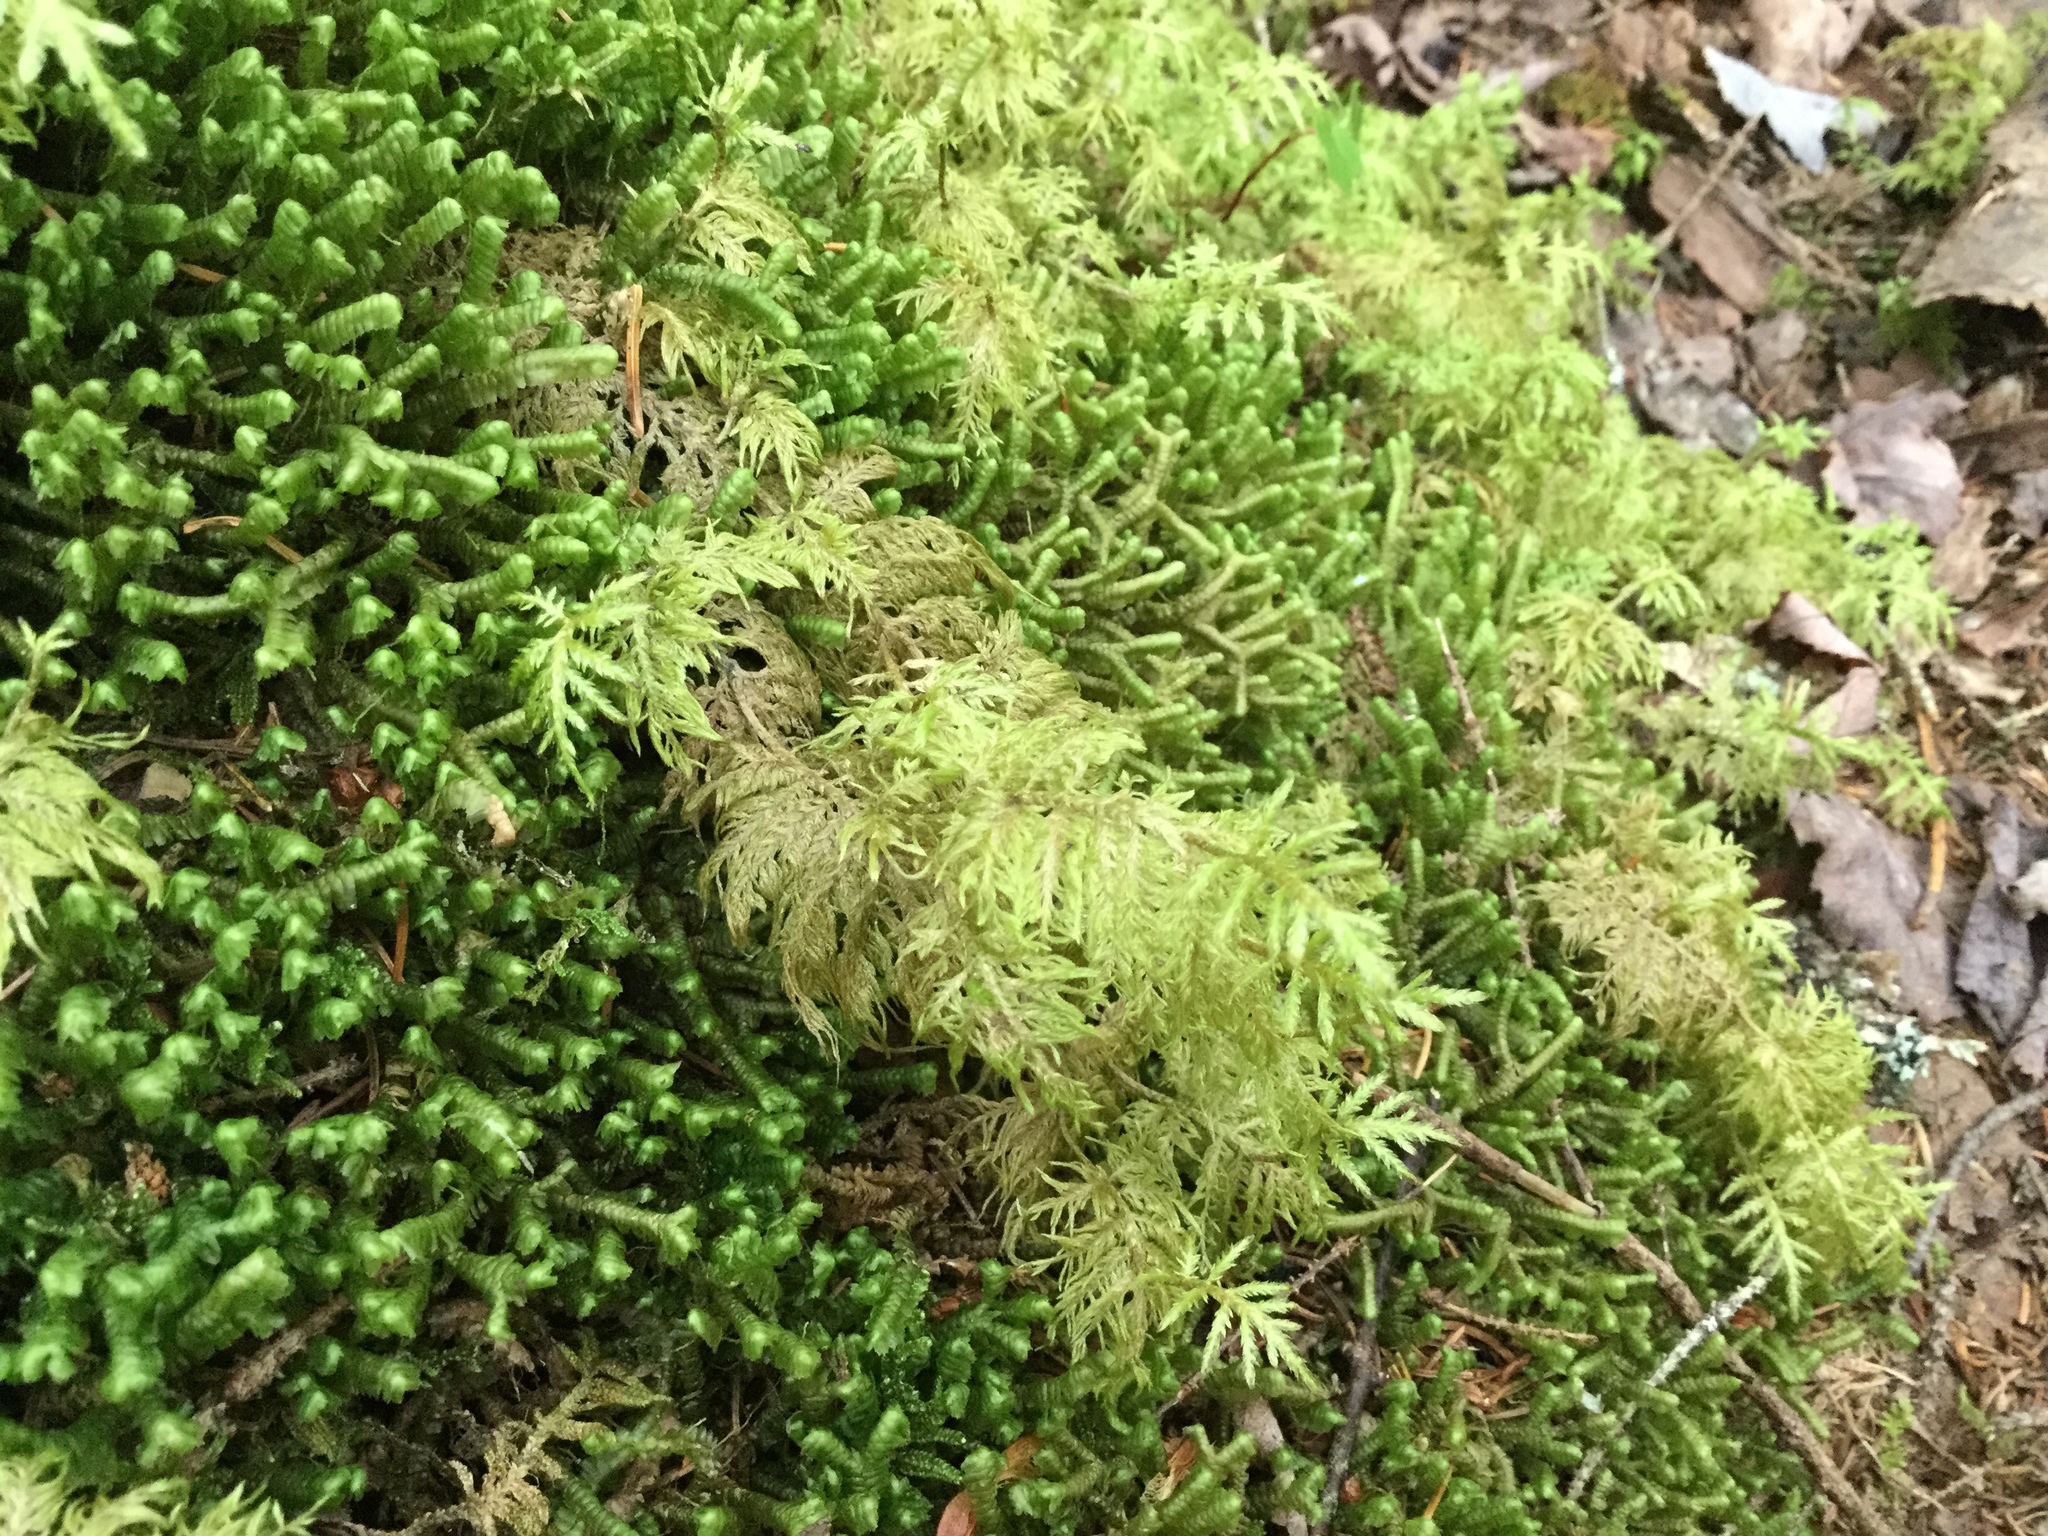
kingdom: Plantae
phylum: Bryophyta
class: Bryopsida
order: Hypnales
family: Hylocomiaceae
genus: Hylocomium
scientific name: Hylocomium splendens
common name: Stairstep moss
